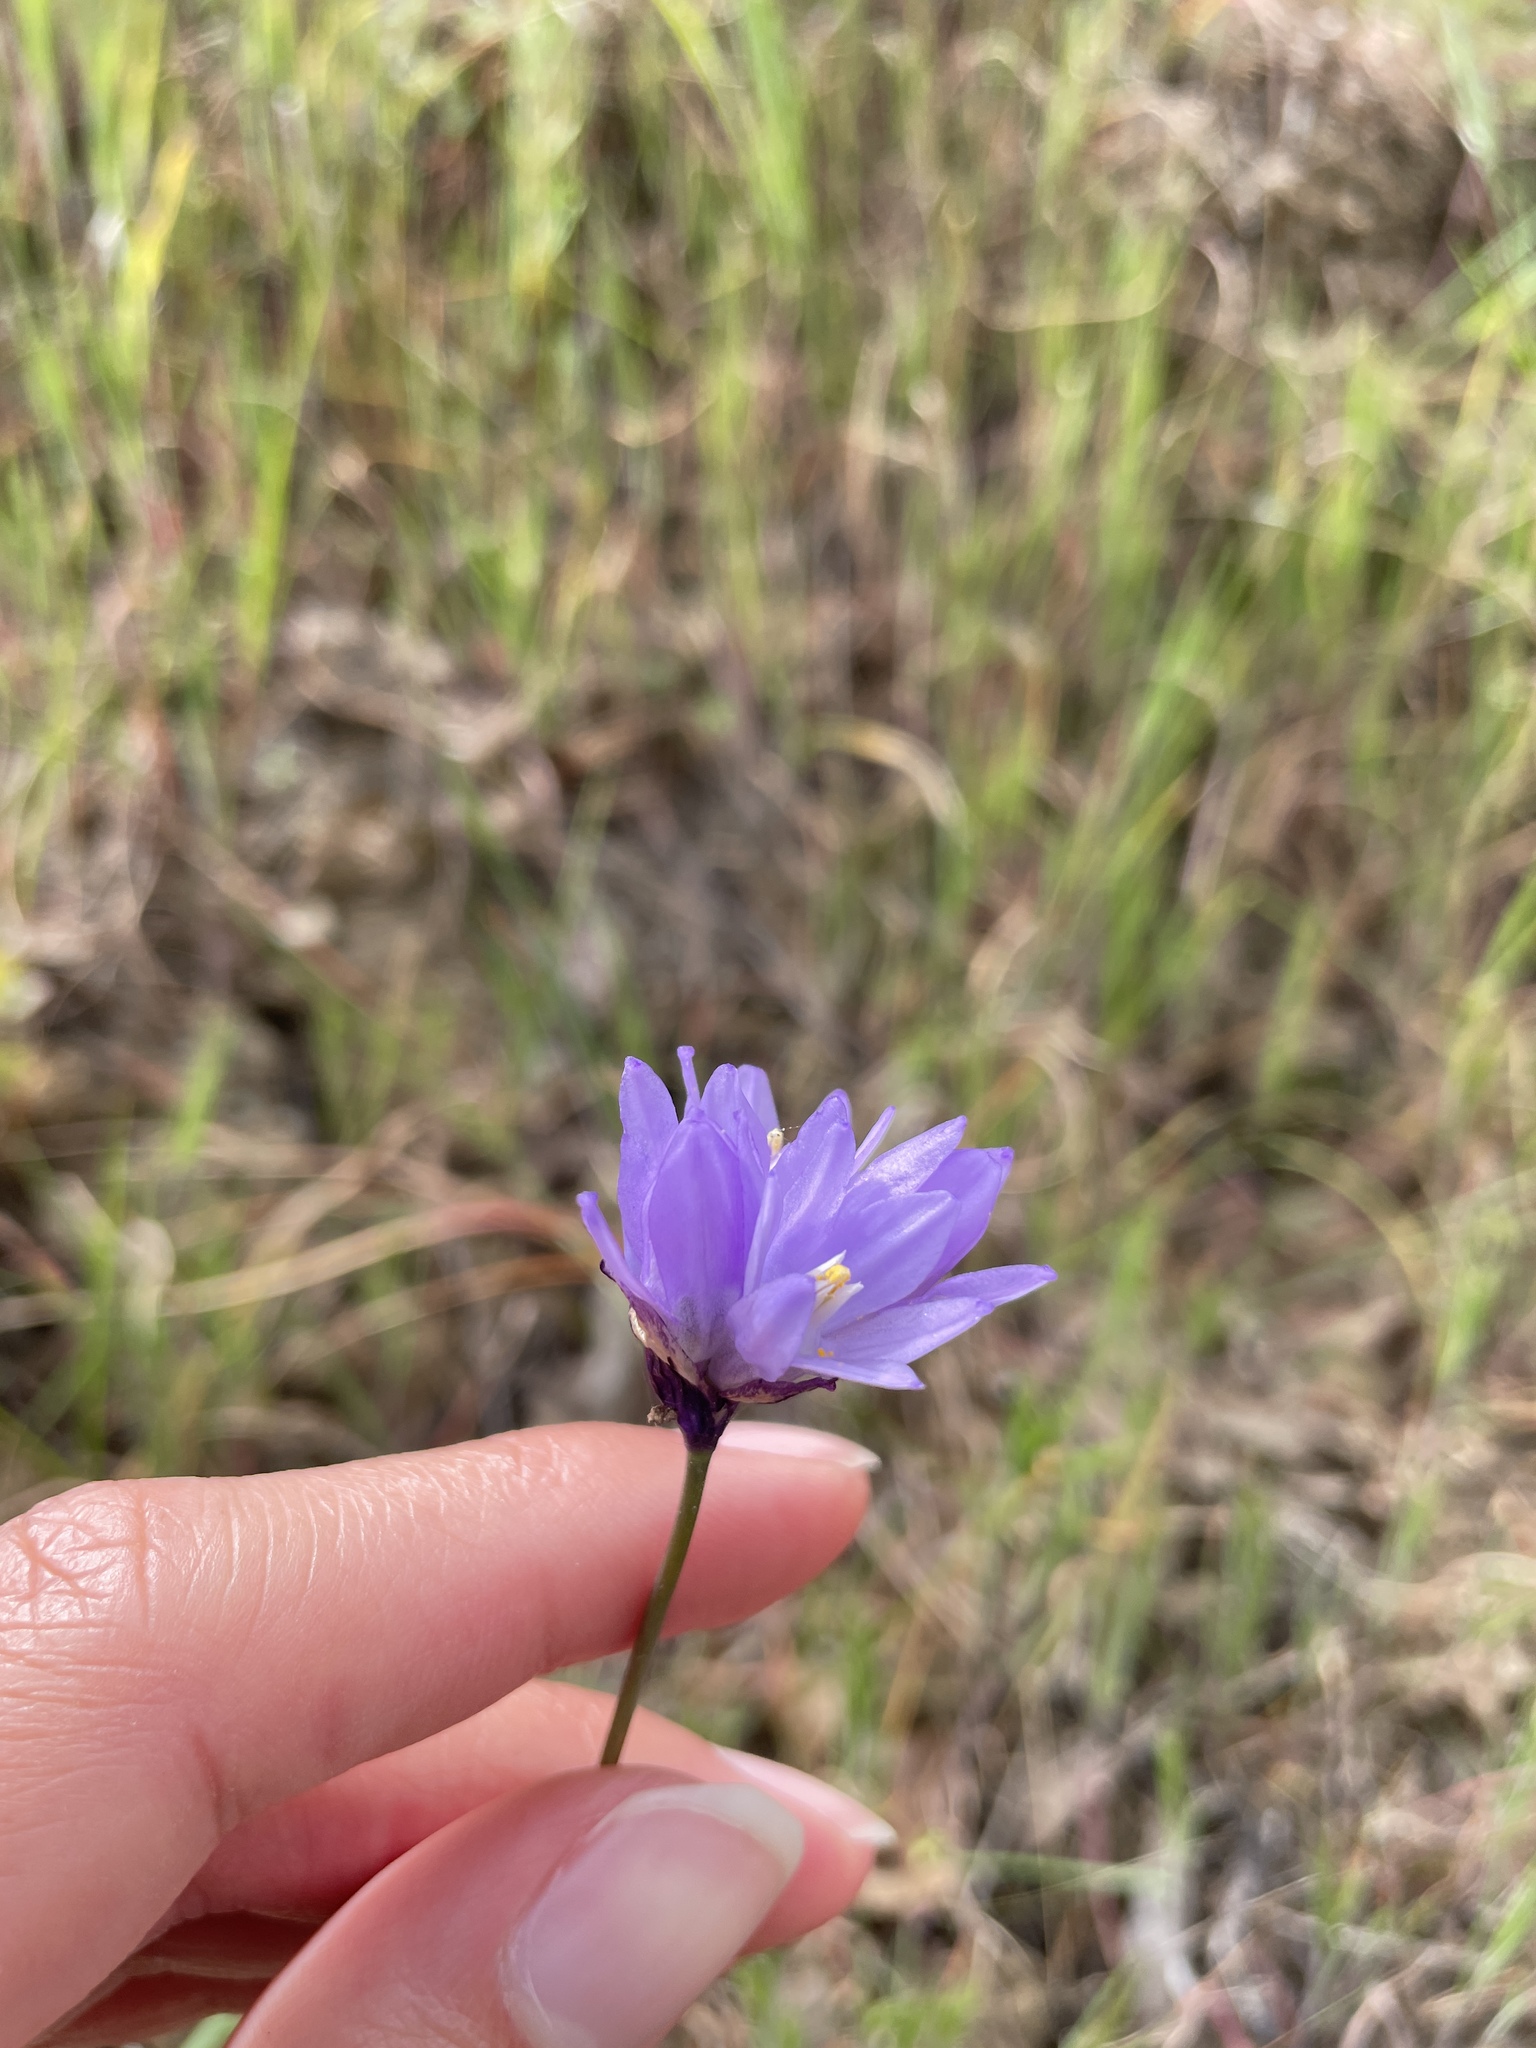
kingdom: Plantae
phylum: Tracheophyta
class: Liliopsida
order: Asparagales
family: Asparagaceae
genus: Dipterostemon
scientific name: Dipterostemon capitatus
